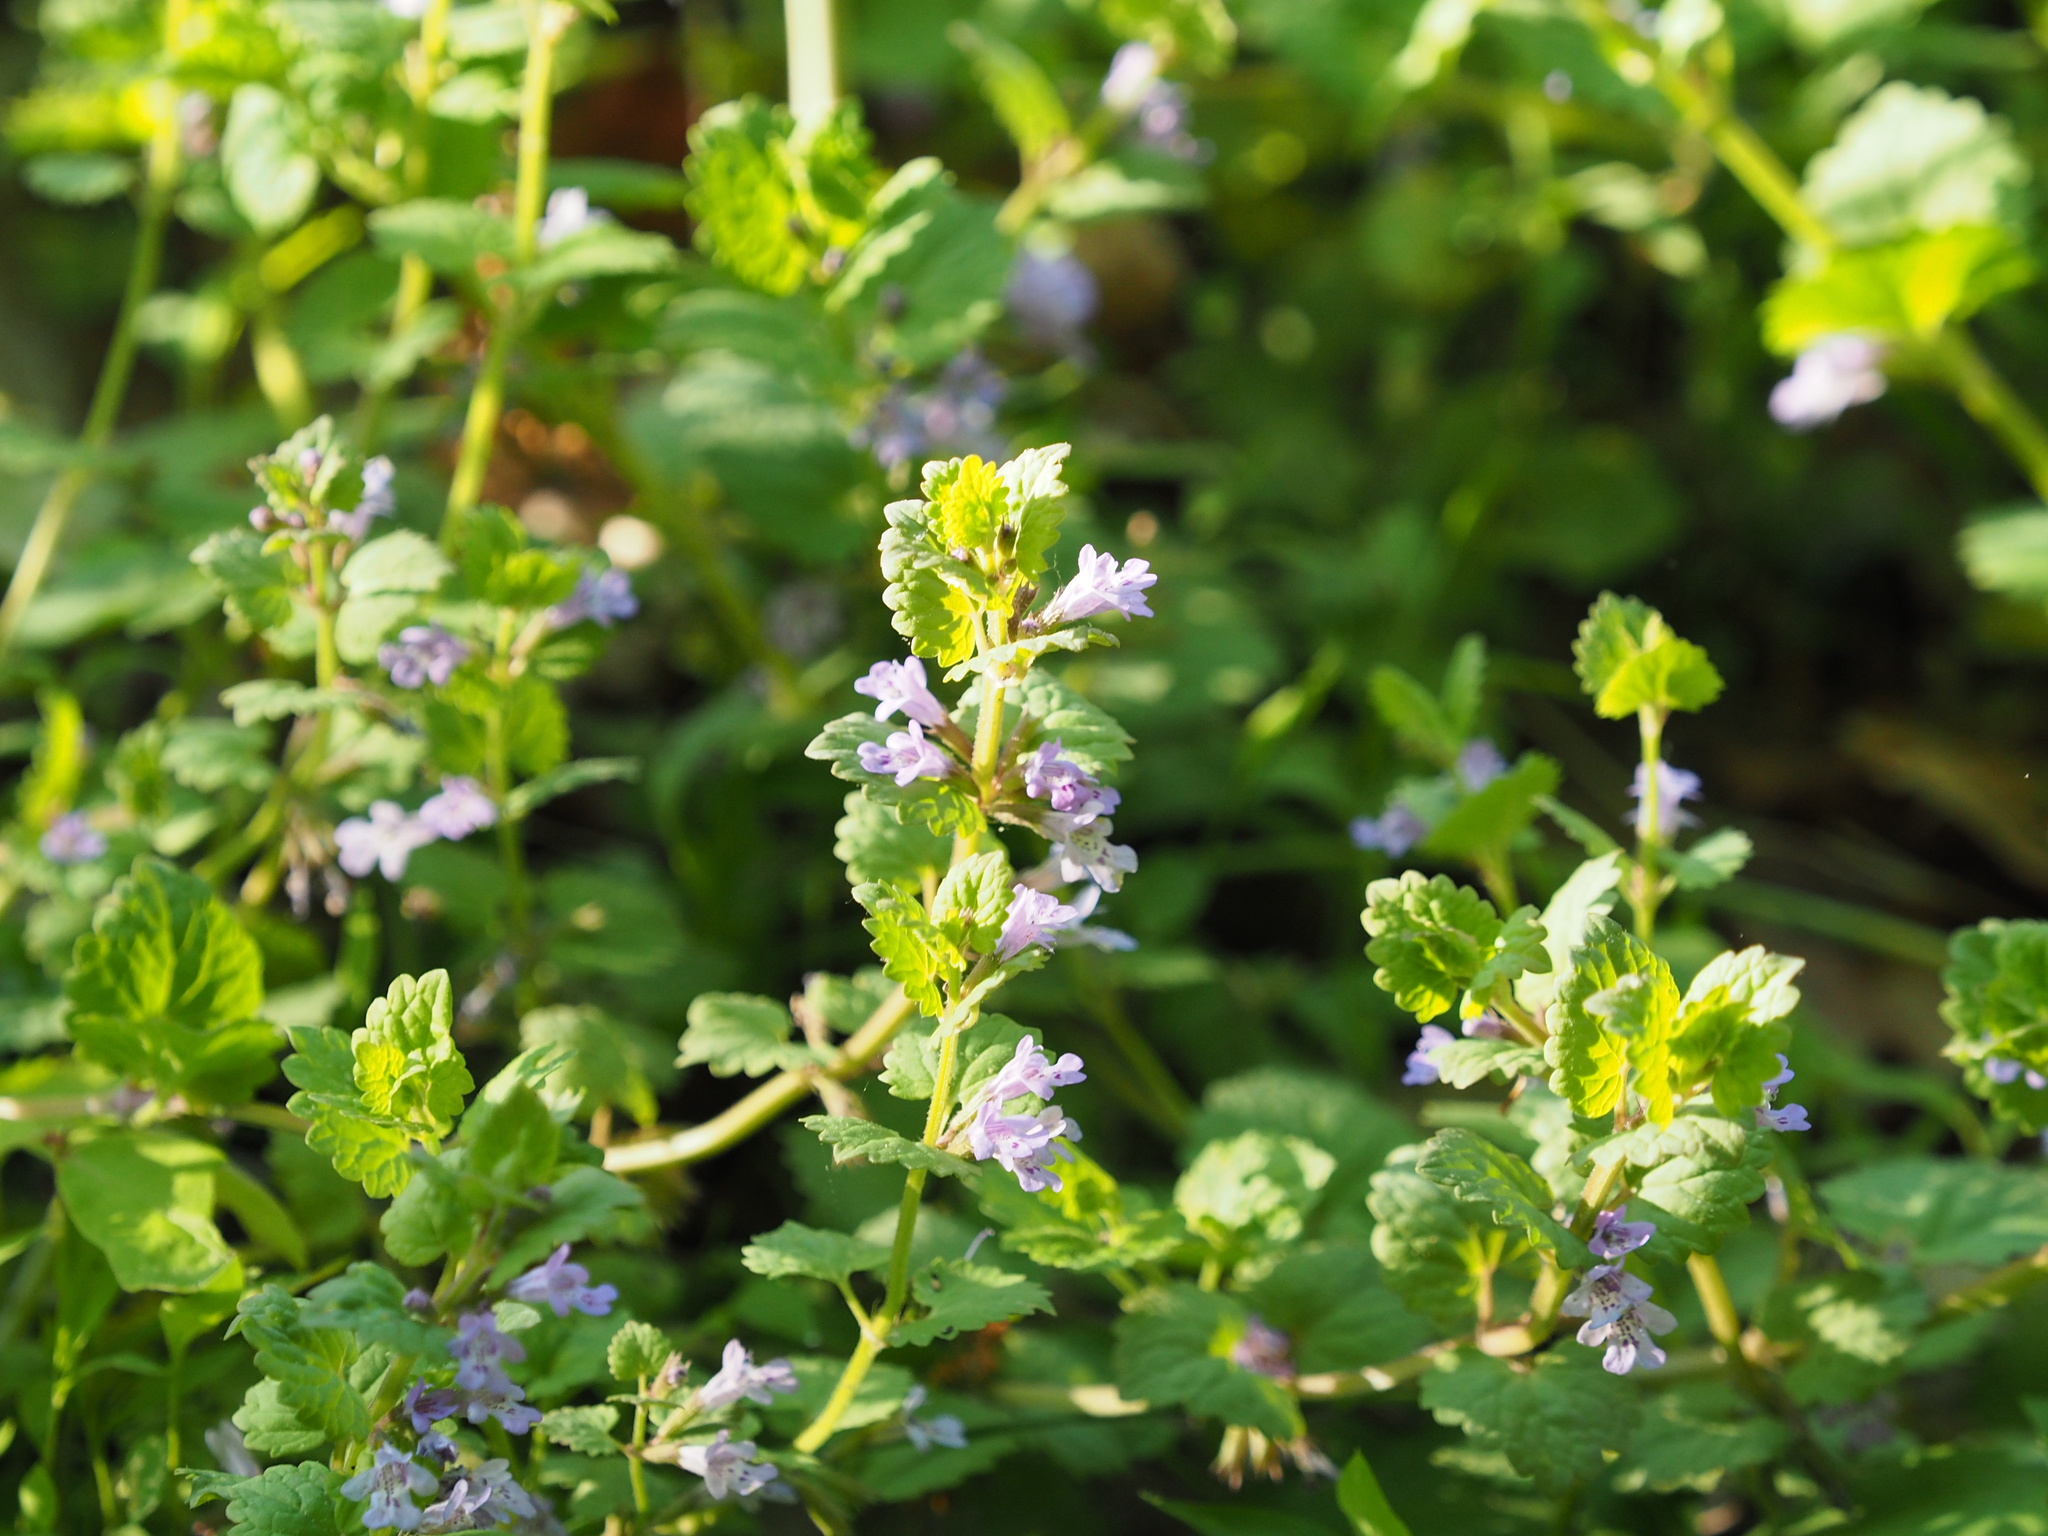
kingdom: Plantae
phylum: Tracheophyta
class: Magnoliopsida
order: Lamiales
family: Lamiaceae
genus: Glechoma
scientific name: Glechoma hederacea
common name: Ground ivy
